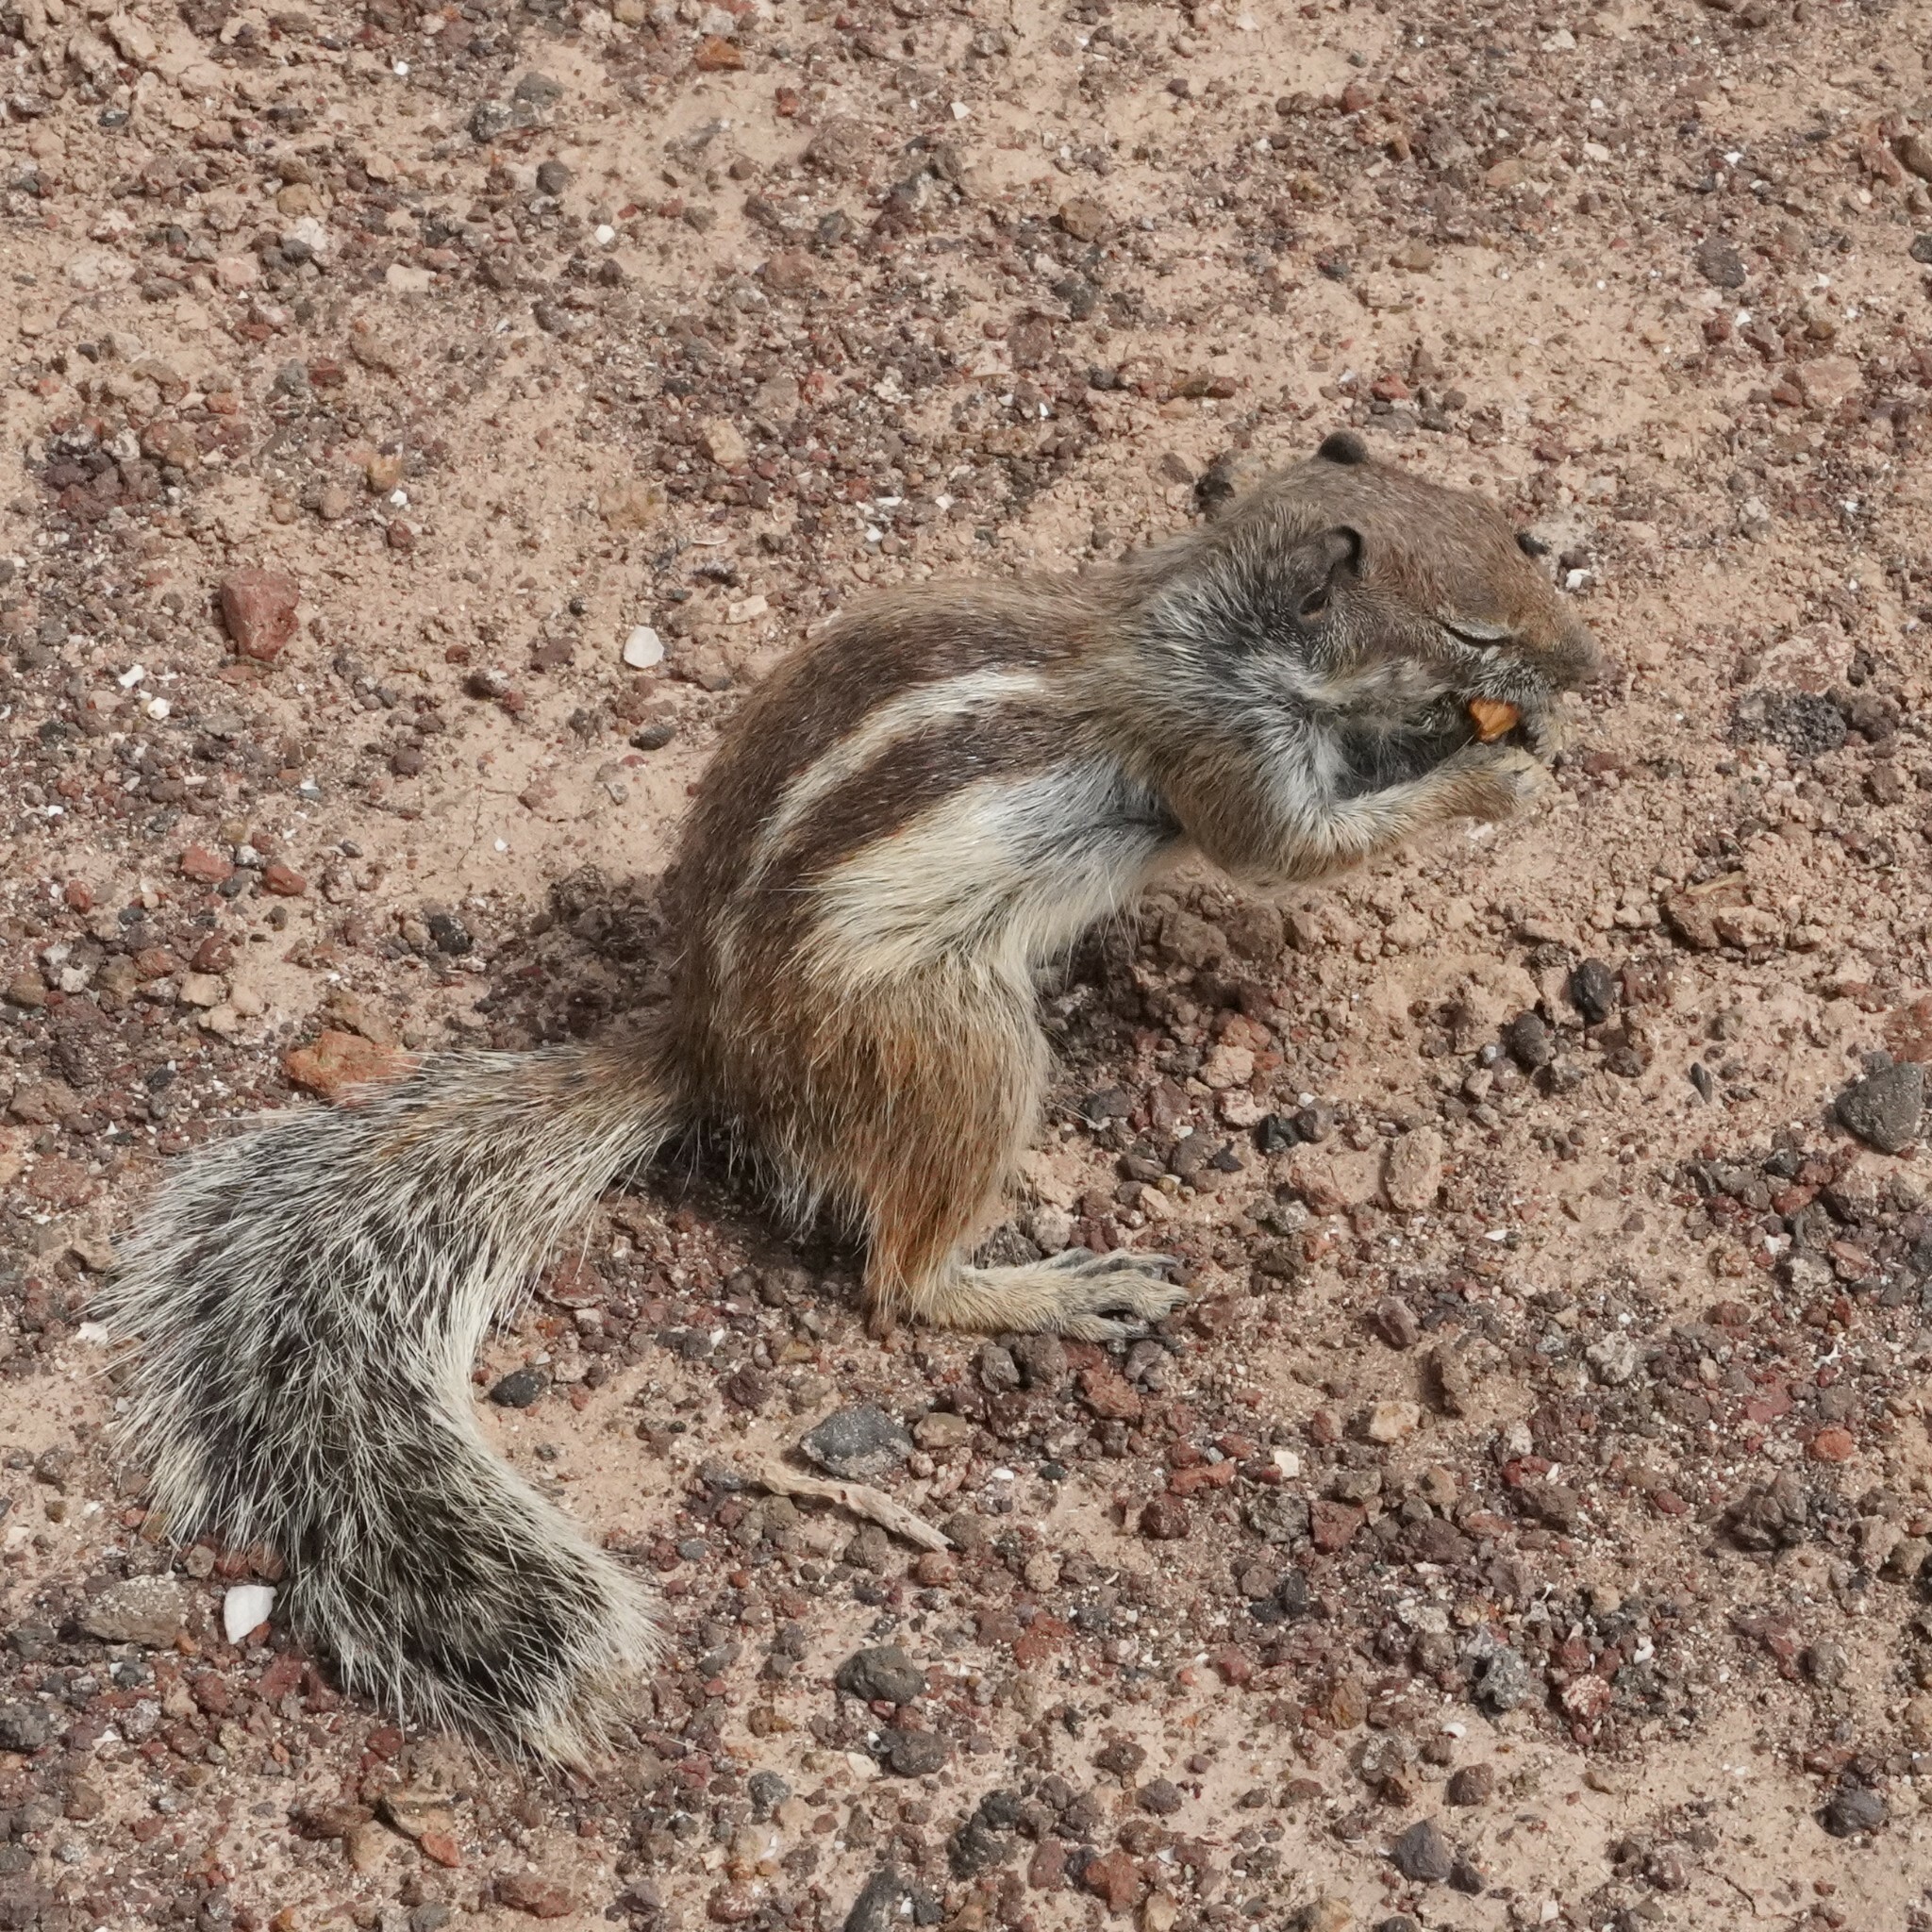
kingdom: Animalia
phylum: Chordata
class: Mammalia
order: Rodentia
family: Sciuridae
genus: Atlantoxerus
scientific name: Atlantoxerus getulus
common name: Barbary ground squirrel
